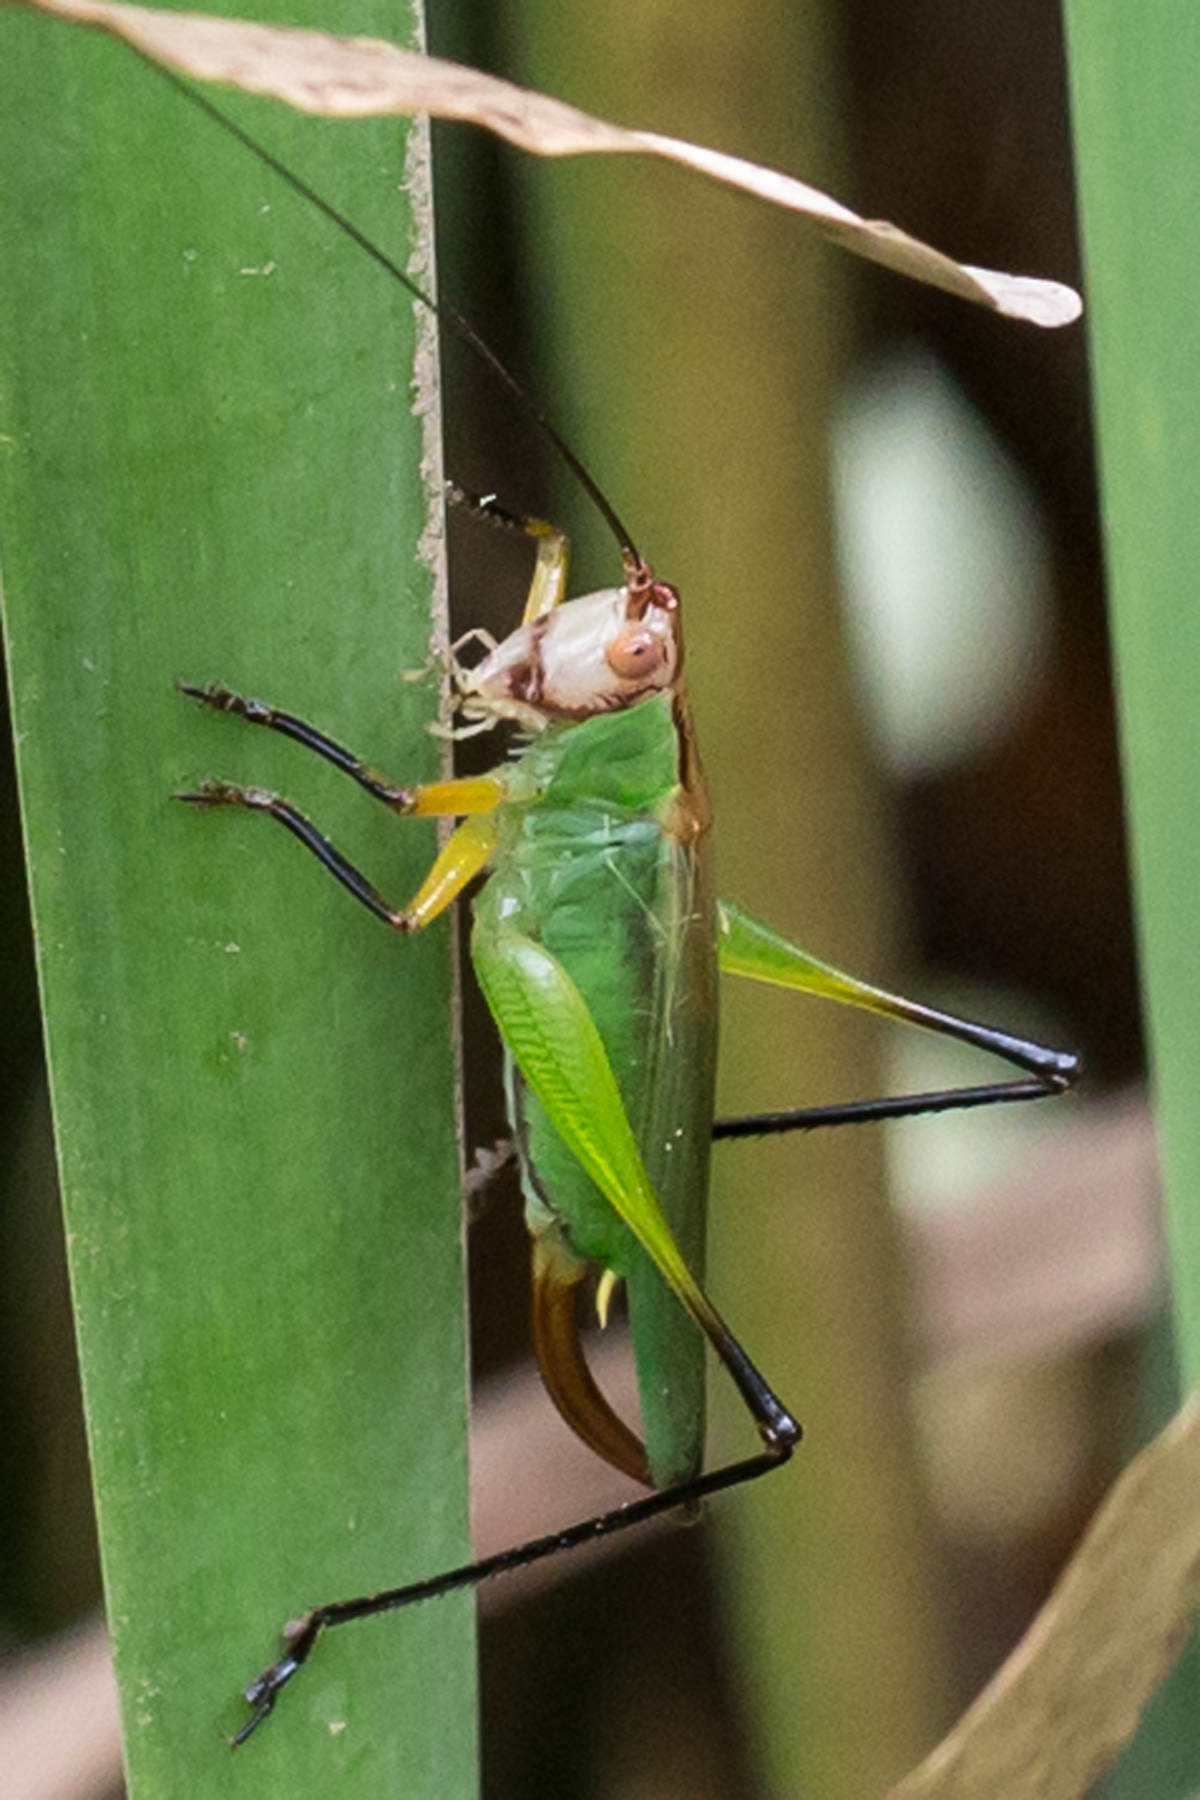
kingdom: Animalia
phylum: Arthropoda
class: Insecta
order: Orthoptera
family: Tettigoniidae
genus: Orchelimum
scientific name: Orchelimum nigripes
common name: Black-legged meadow katydid
